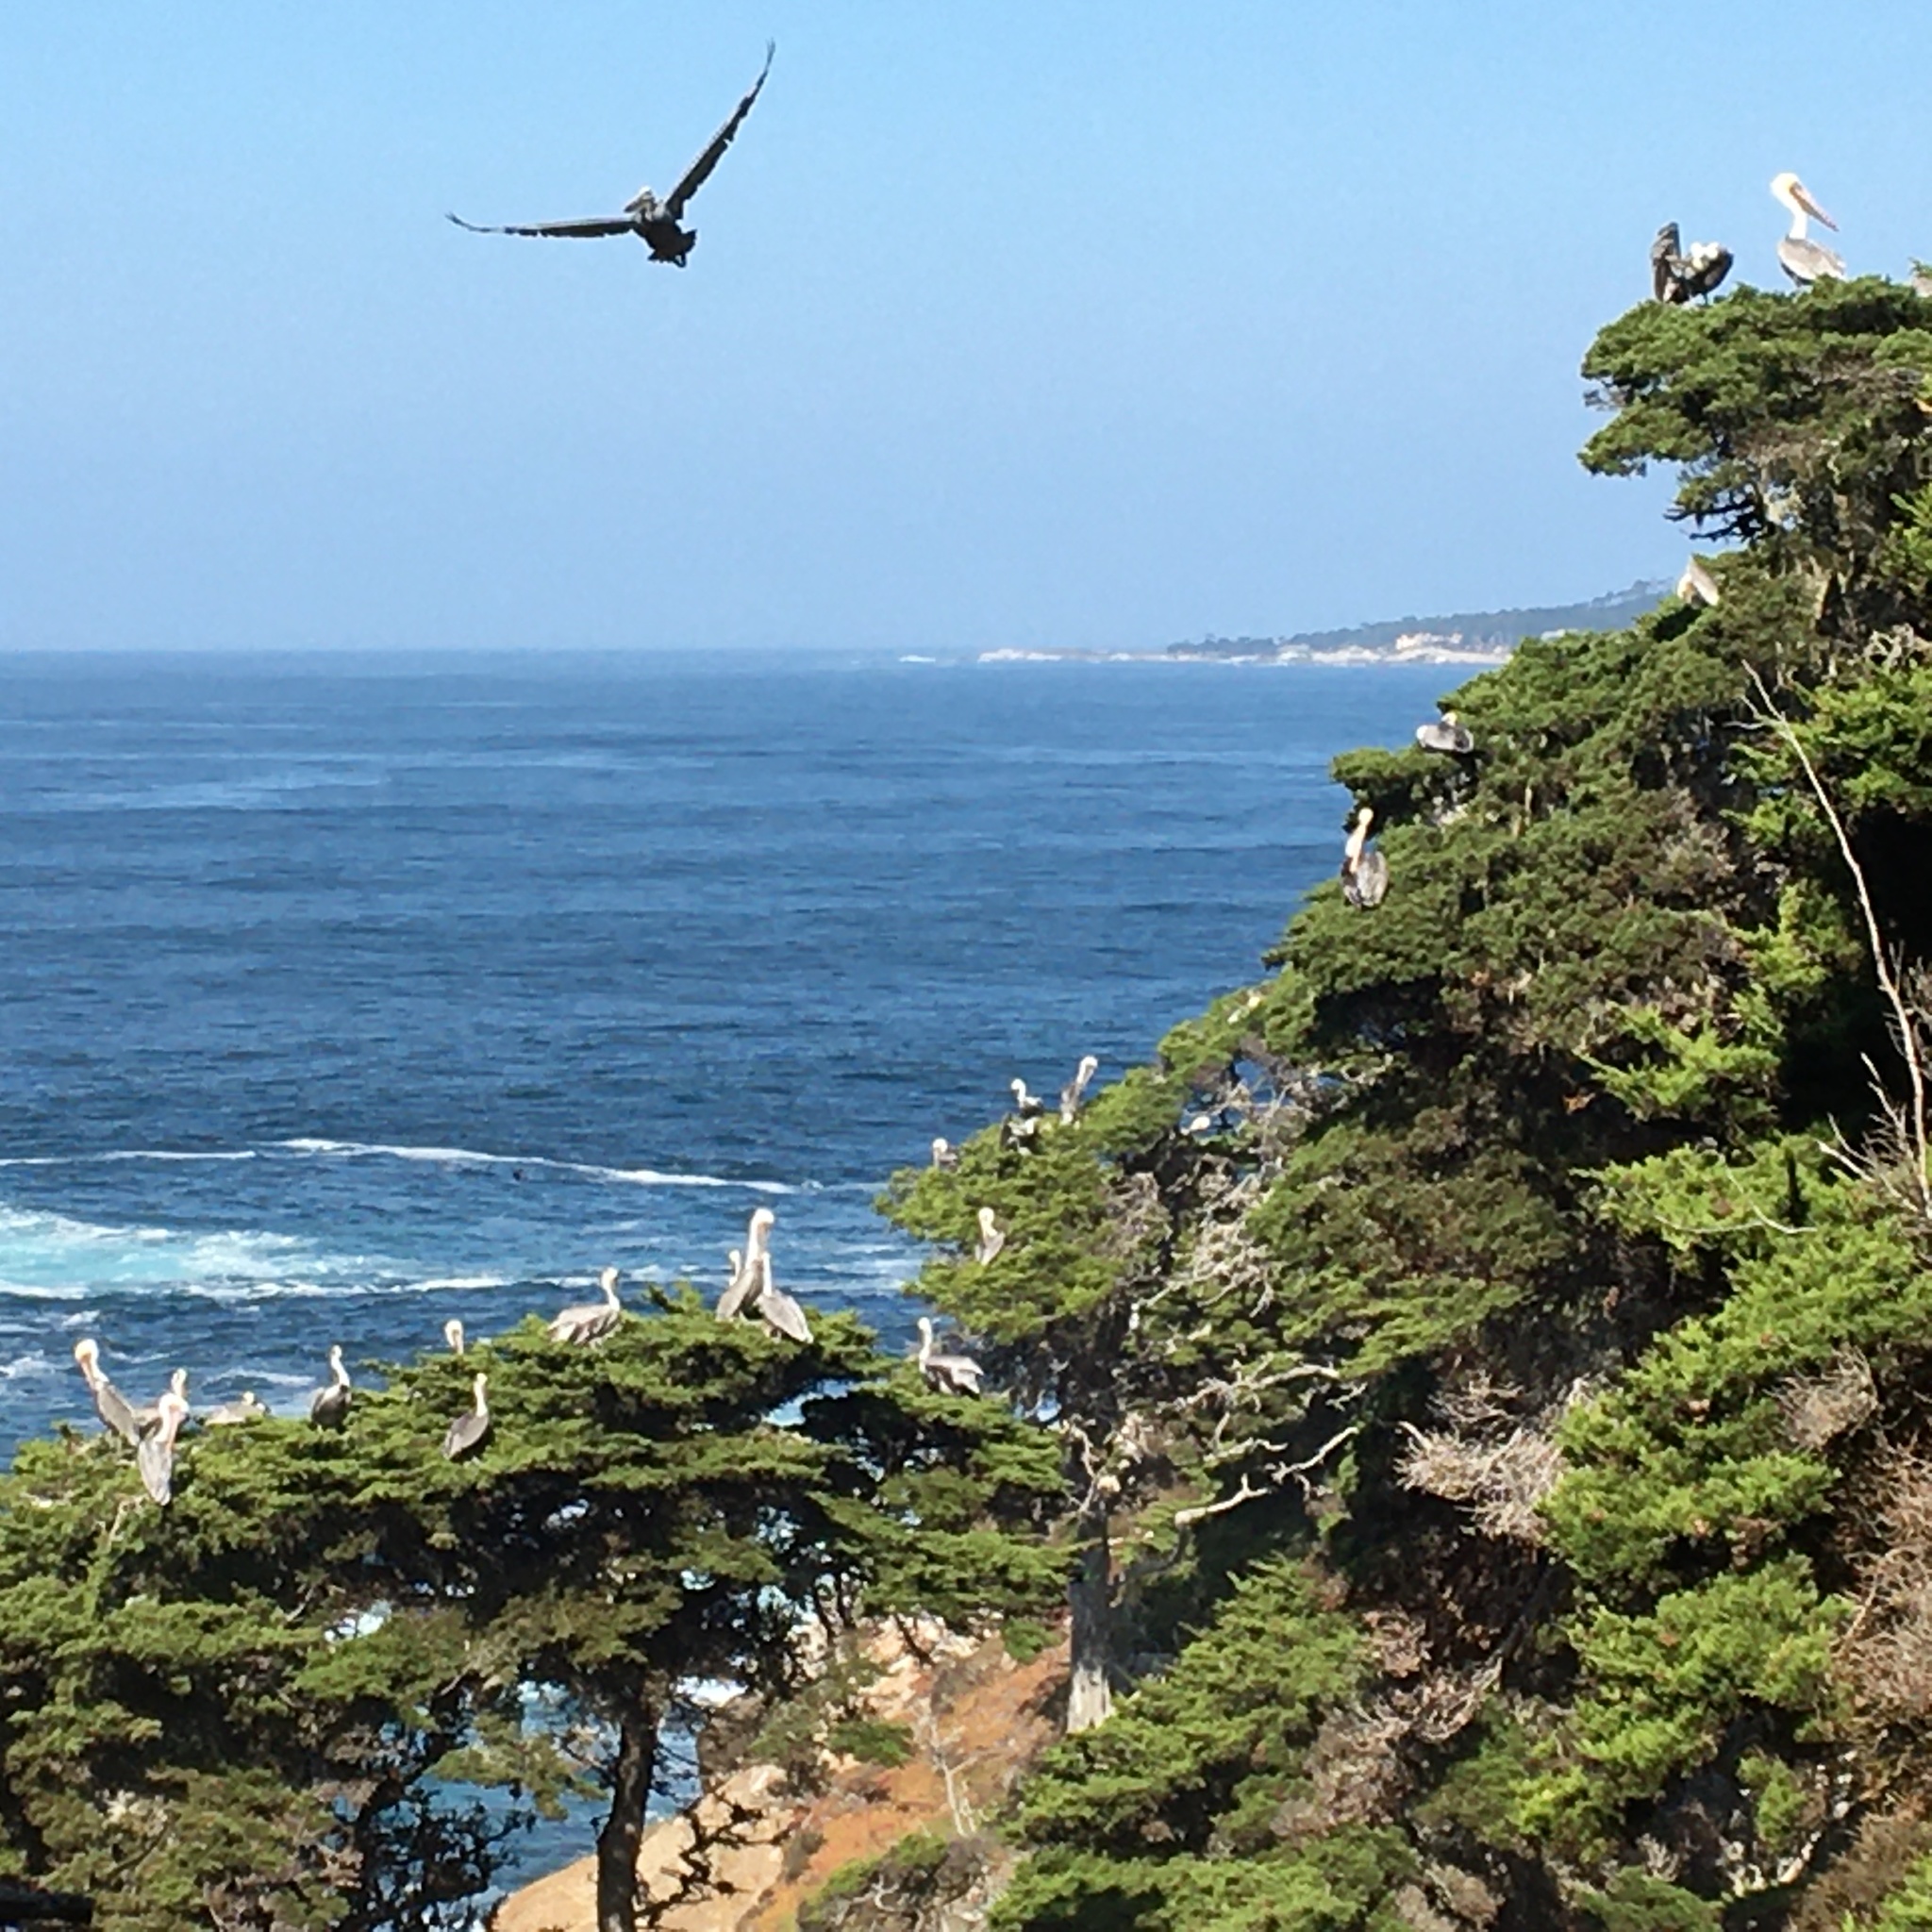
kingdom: Animalia
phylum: Chordata
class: Aves
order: Pelecaniformes
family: Pelecanidae
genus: Pelecanus
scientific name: Pelecanus occidentalis
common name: Brown pelican
